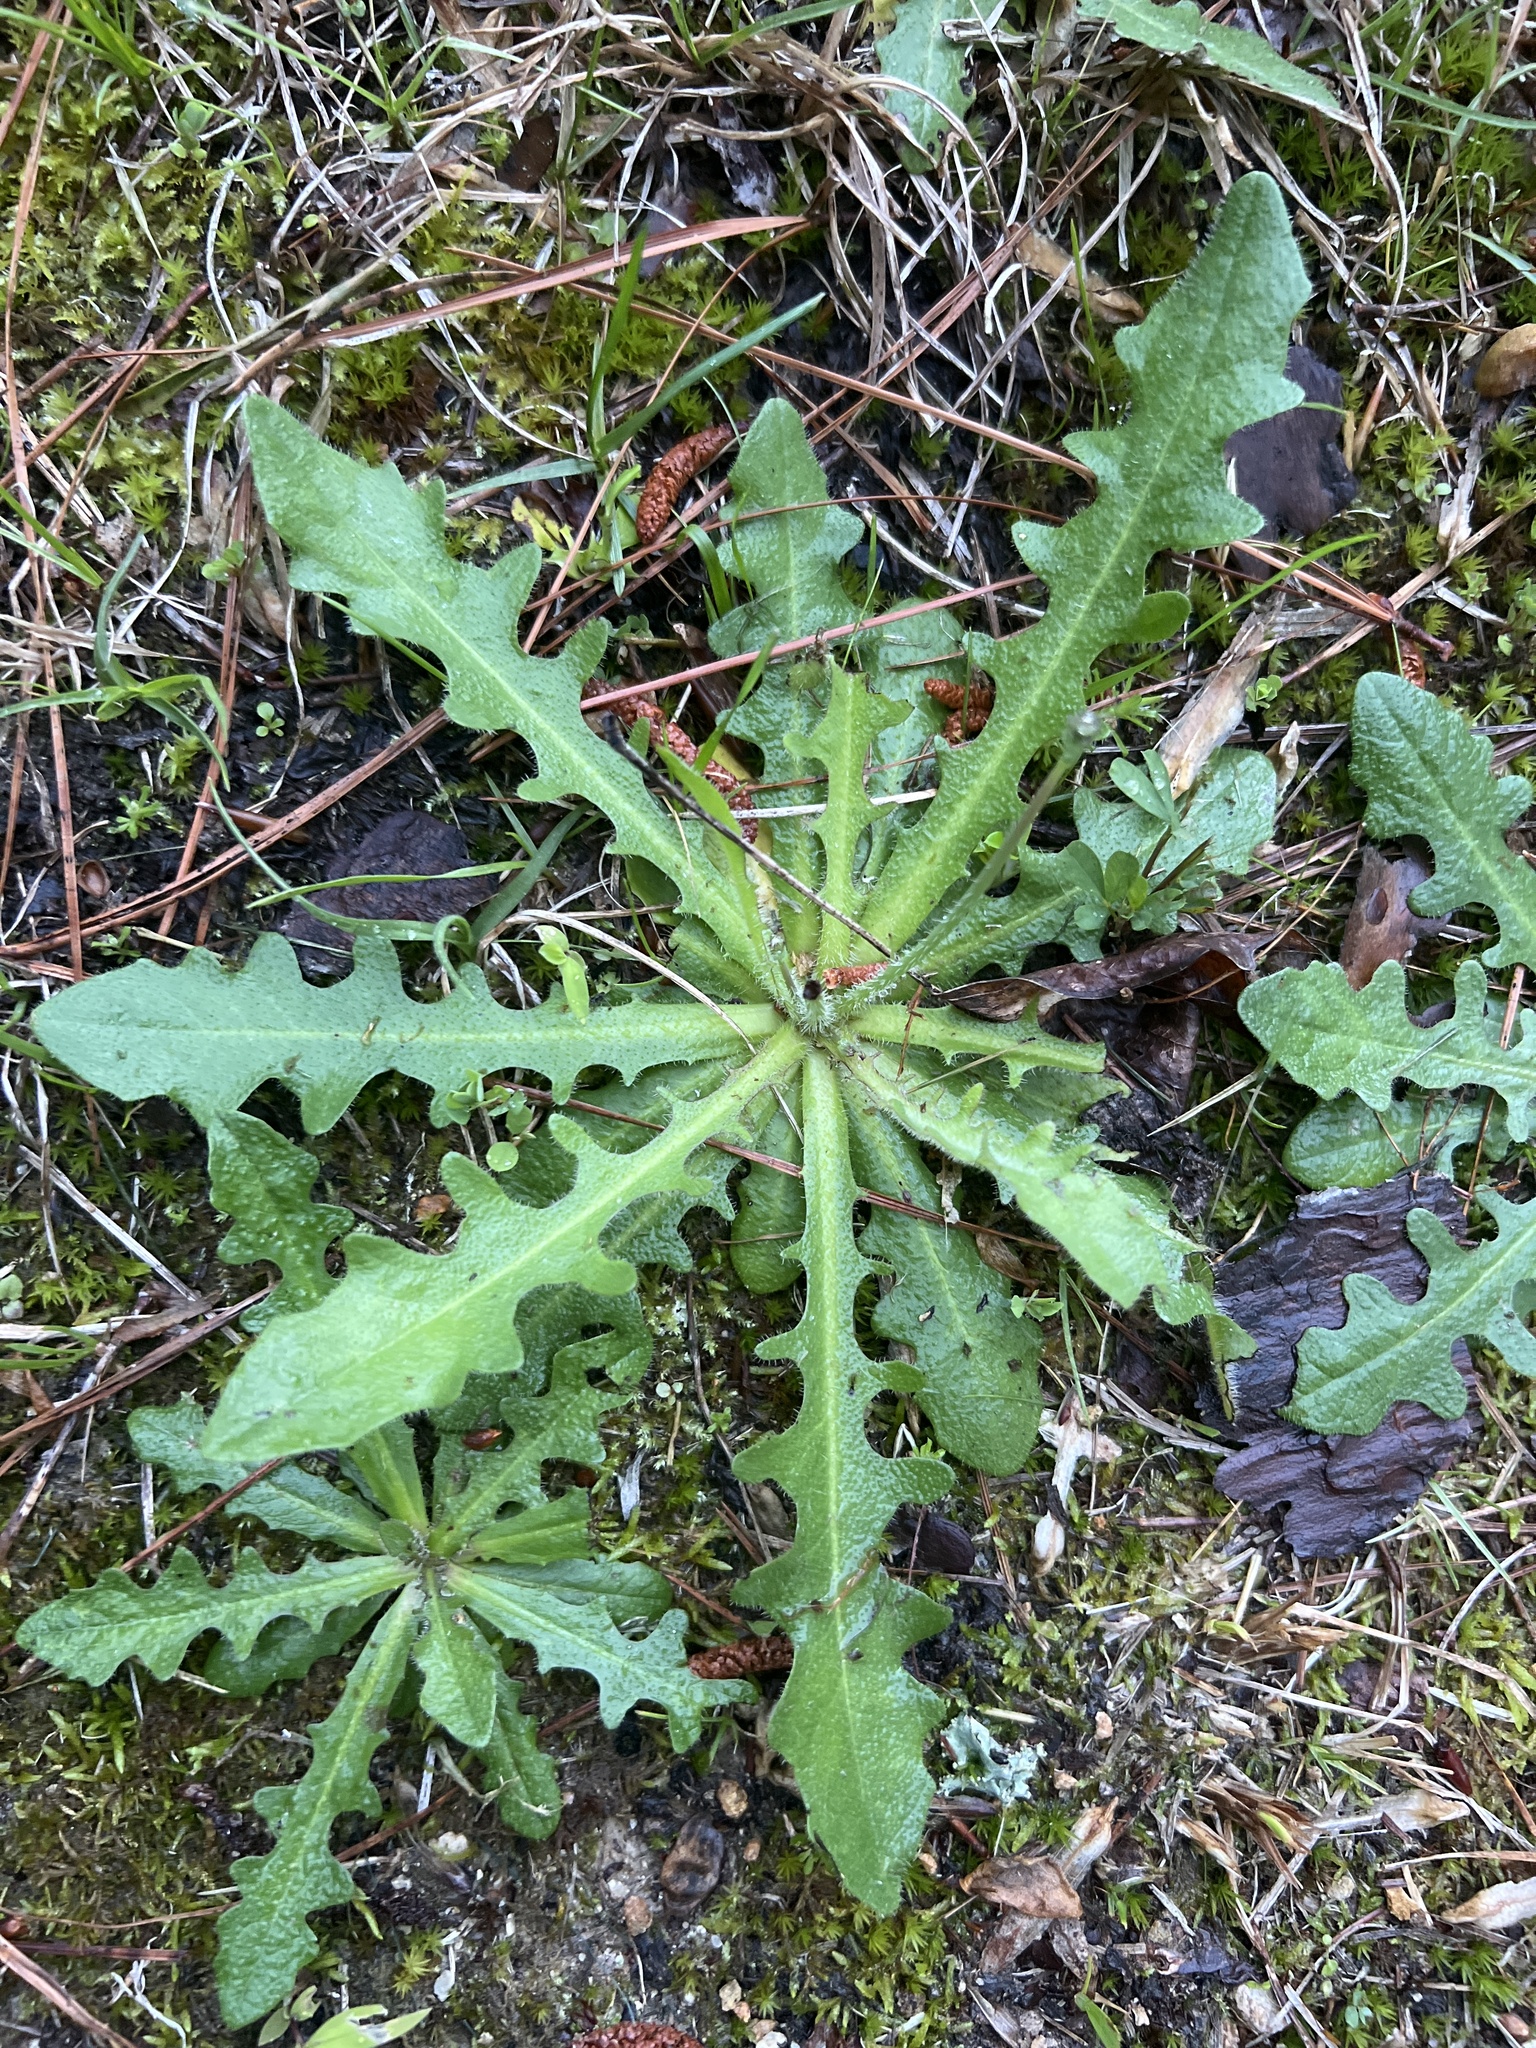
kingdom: Plantae
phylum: Tracheophyta
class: Magnoliopsida
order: Asterales
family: Asteraceae
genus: Hypochaeris
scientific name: Hypochaeris radicata
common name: Flatweed
